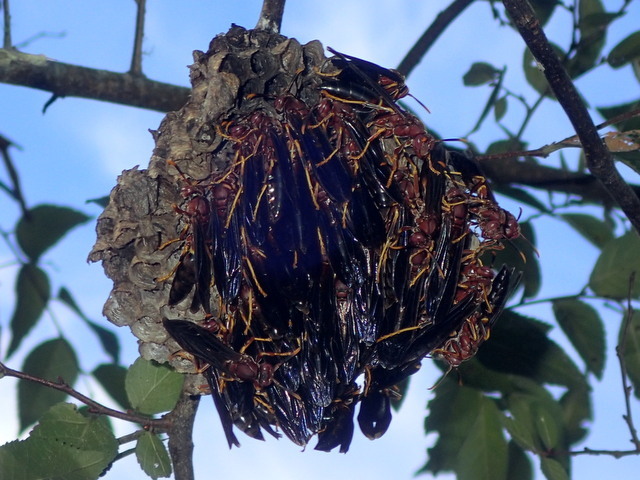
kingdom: Animalia
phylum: Arthropoda
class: Insecta
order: Hymenoptera
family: Eumenidae
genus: Polistes
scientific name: Polistes annularis
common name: Ringed paper wasp
